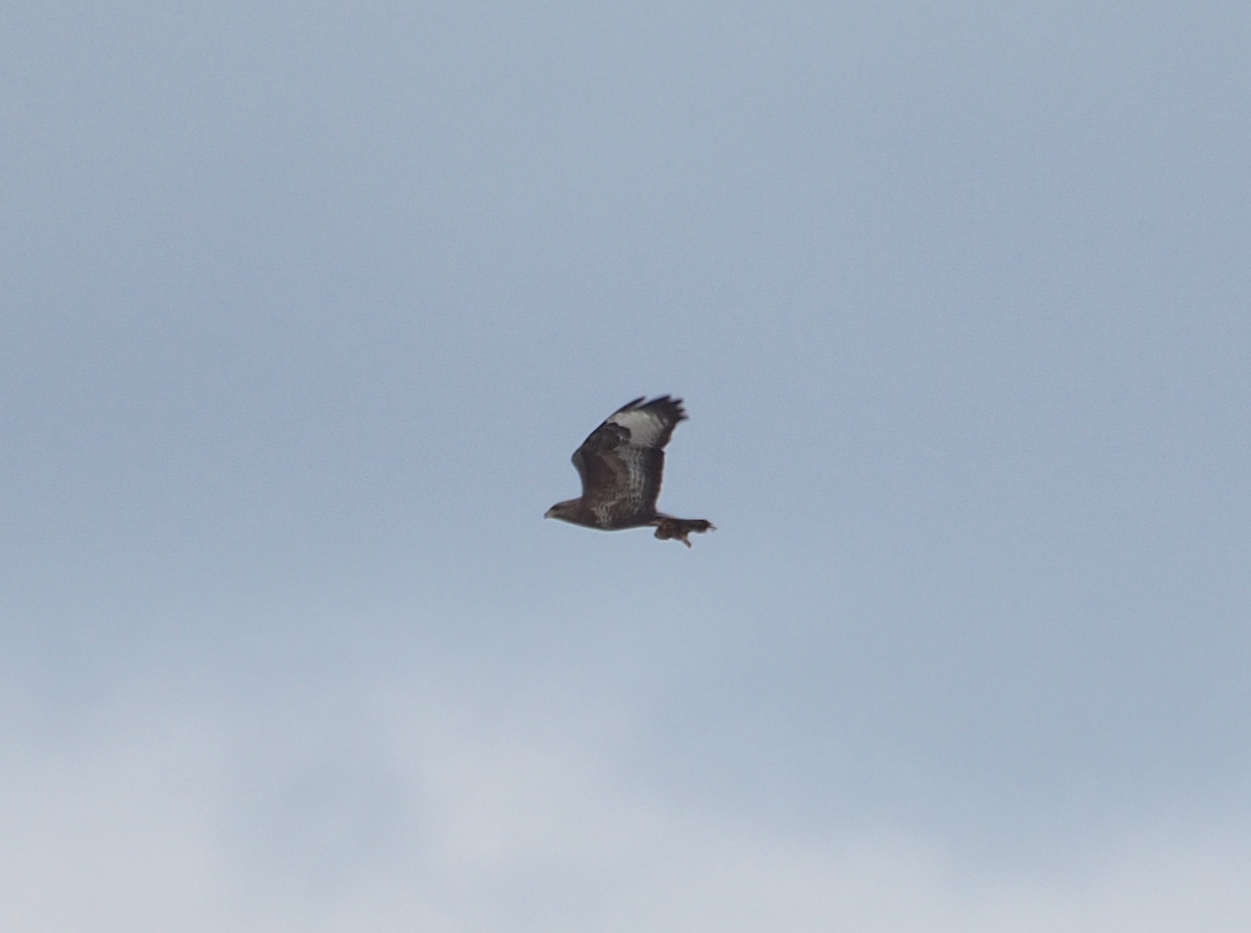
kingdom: Animalia
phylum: Chordata
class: Aves
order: Accipitriformes
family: Accipitridae
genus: Buteo
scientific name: Buteo buteo
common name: Common buzzard
